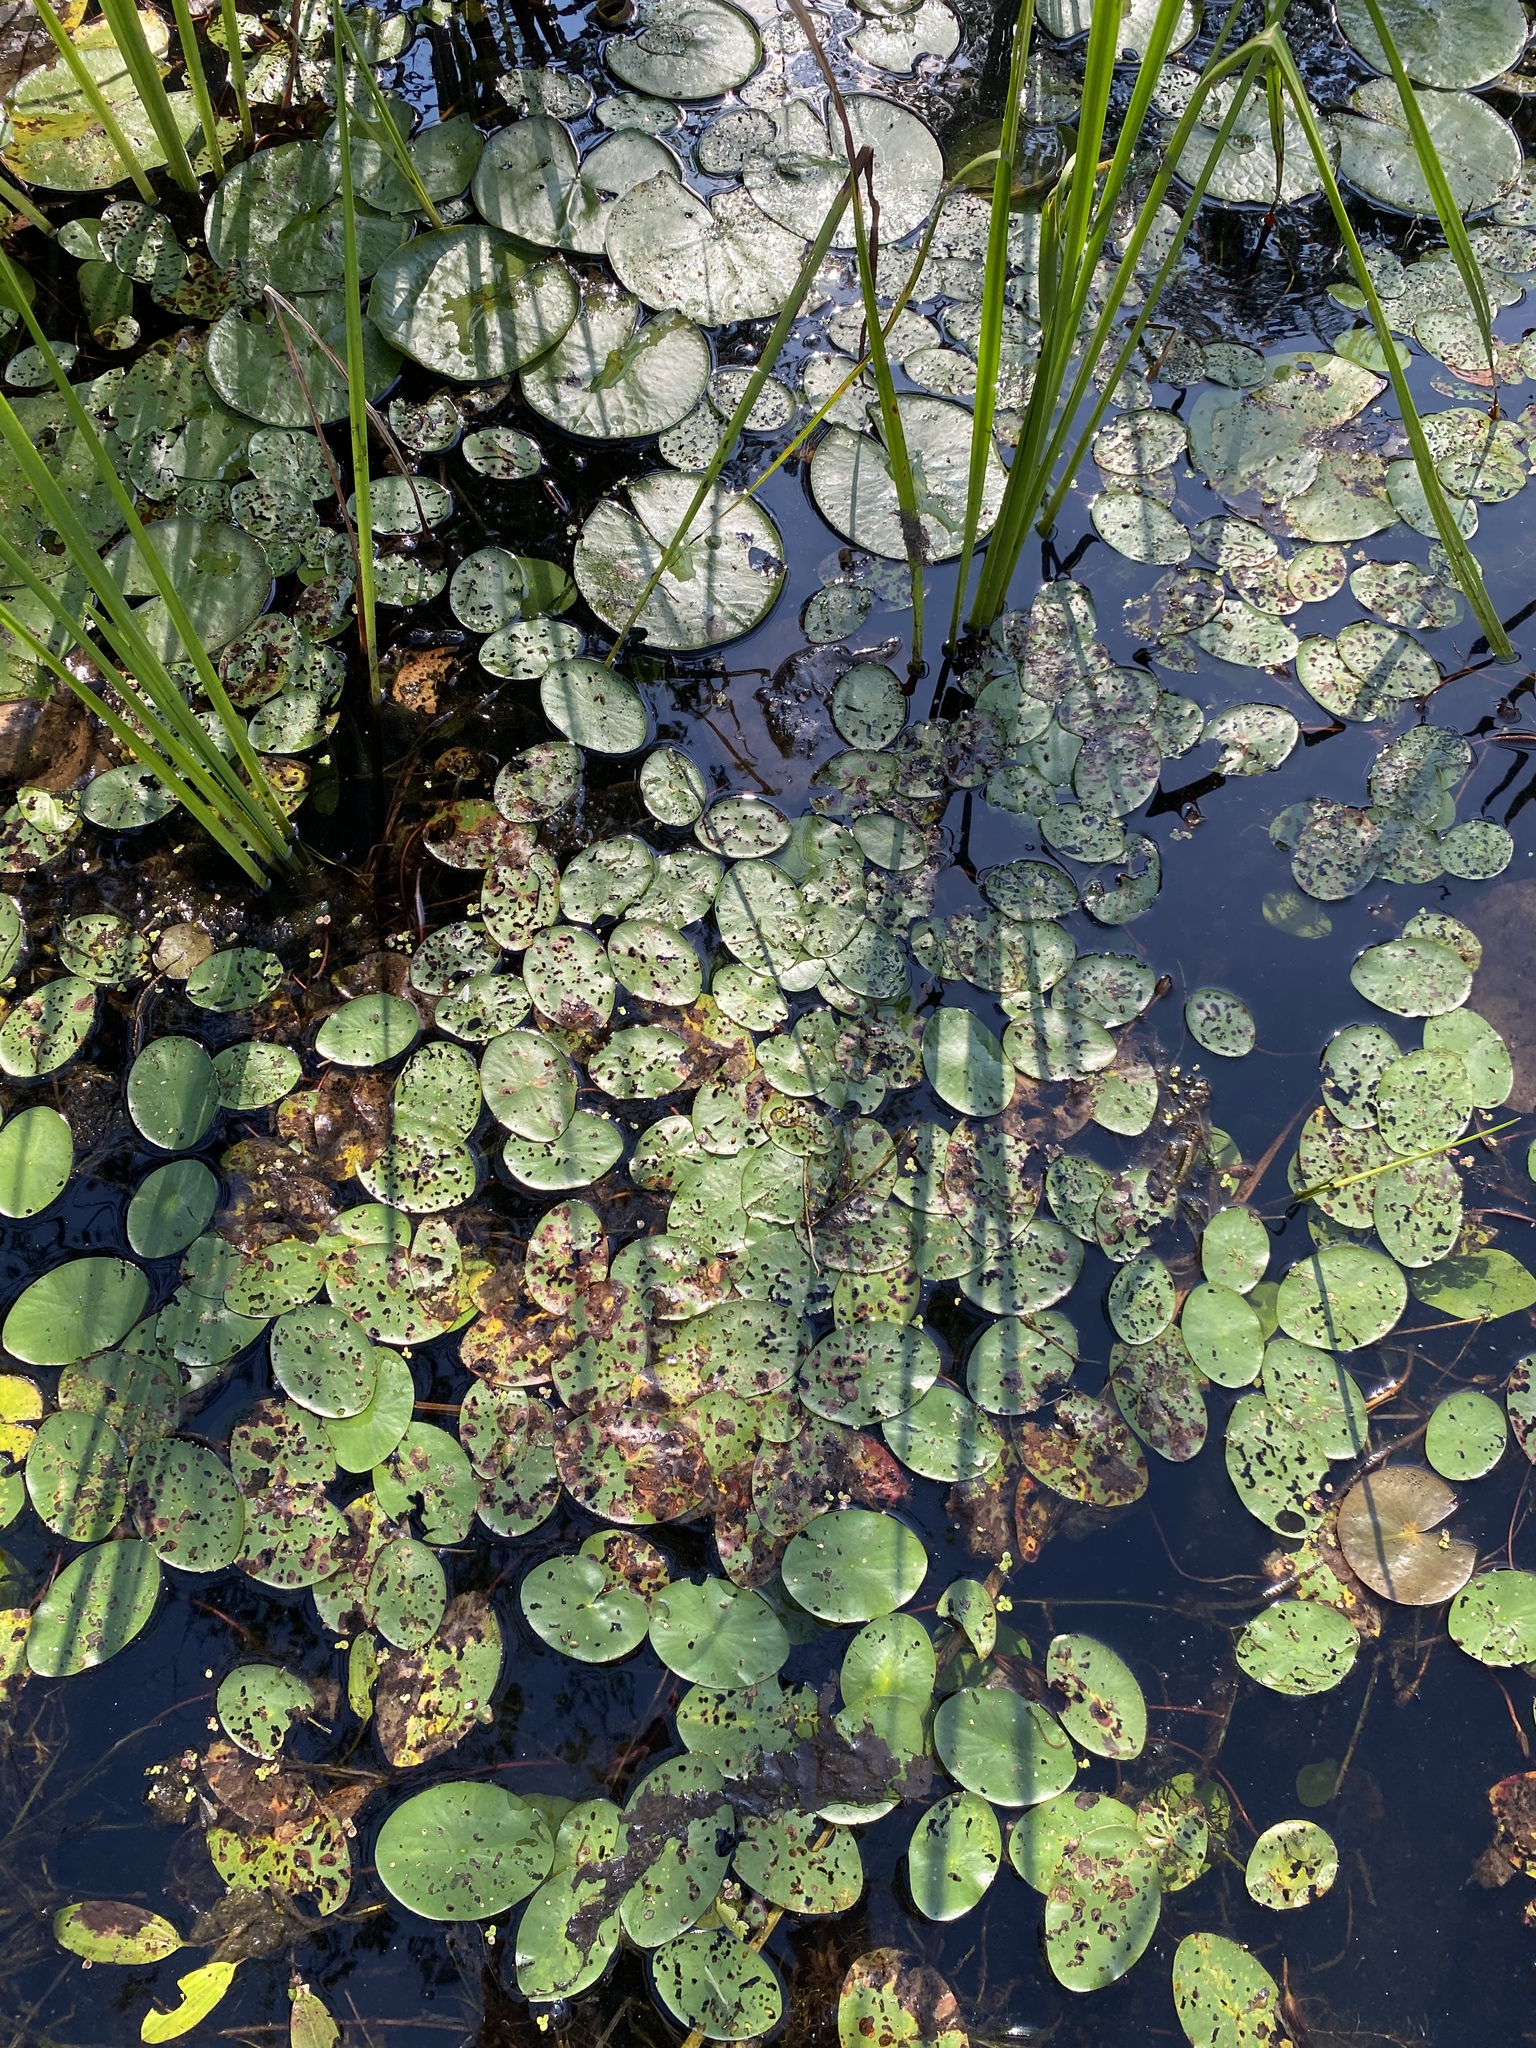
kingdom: Plantae
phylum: Tracheophyta
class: Magnoliopsida
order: Nymphaeales
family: Cabombaceae
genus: Brasenia
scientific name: Brasenia schreberi
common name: Water-shield
